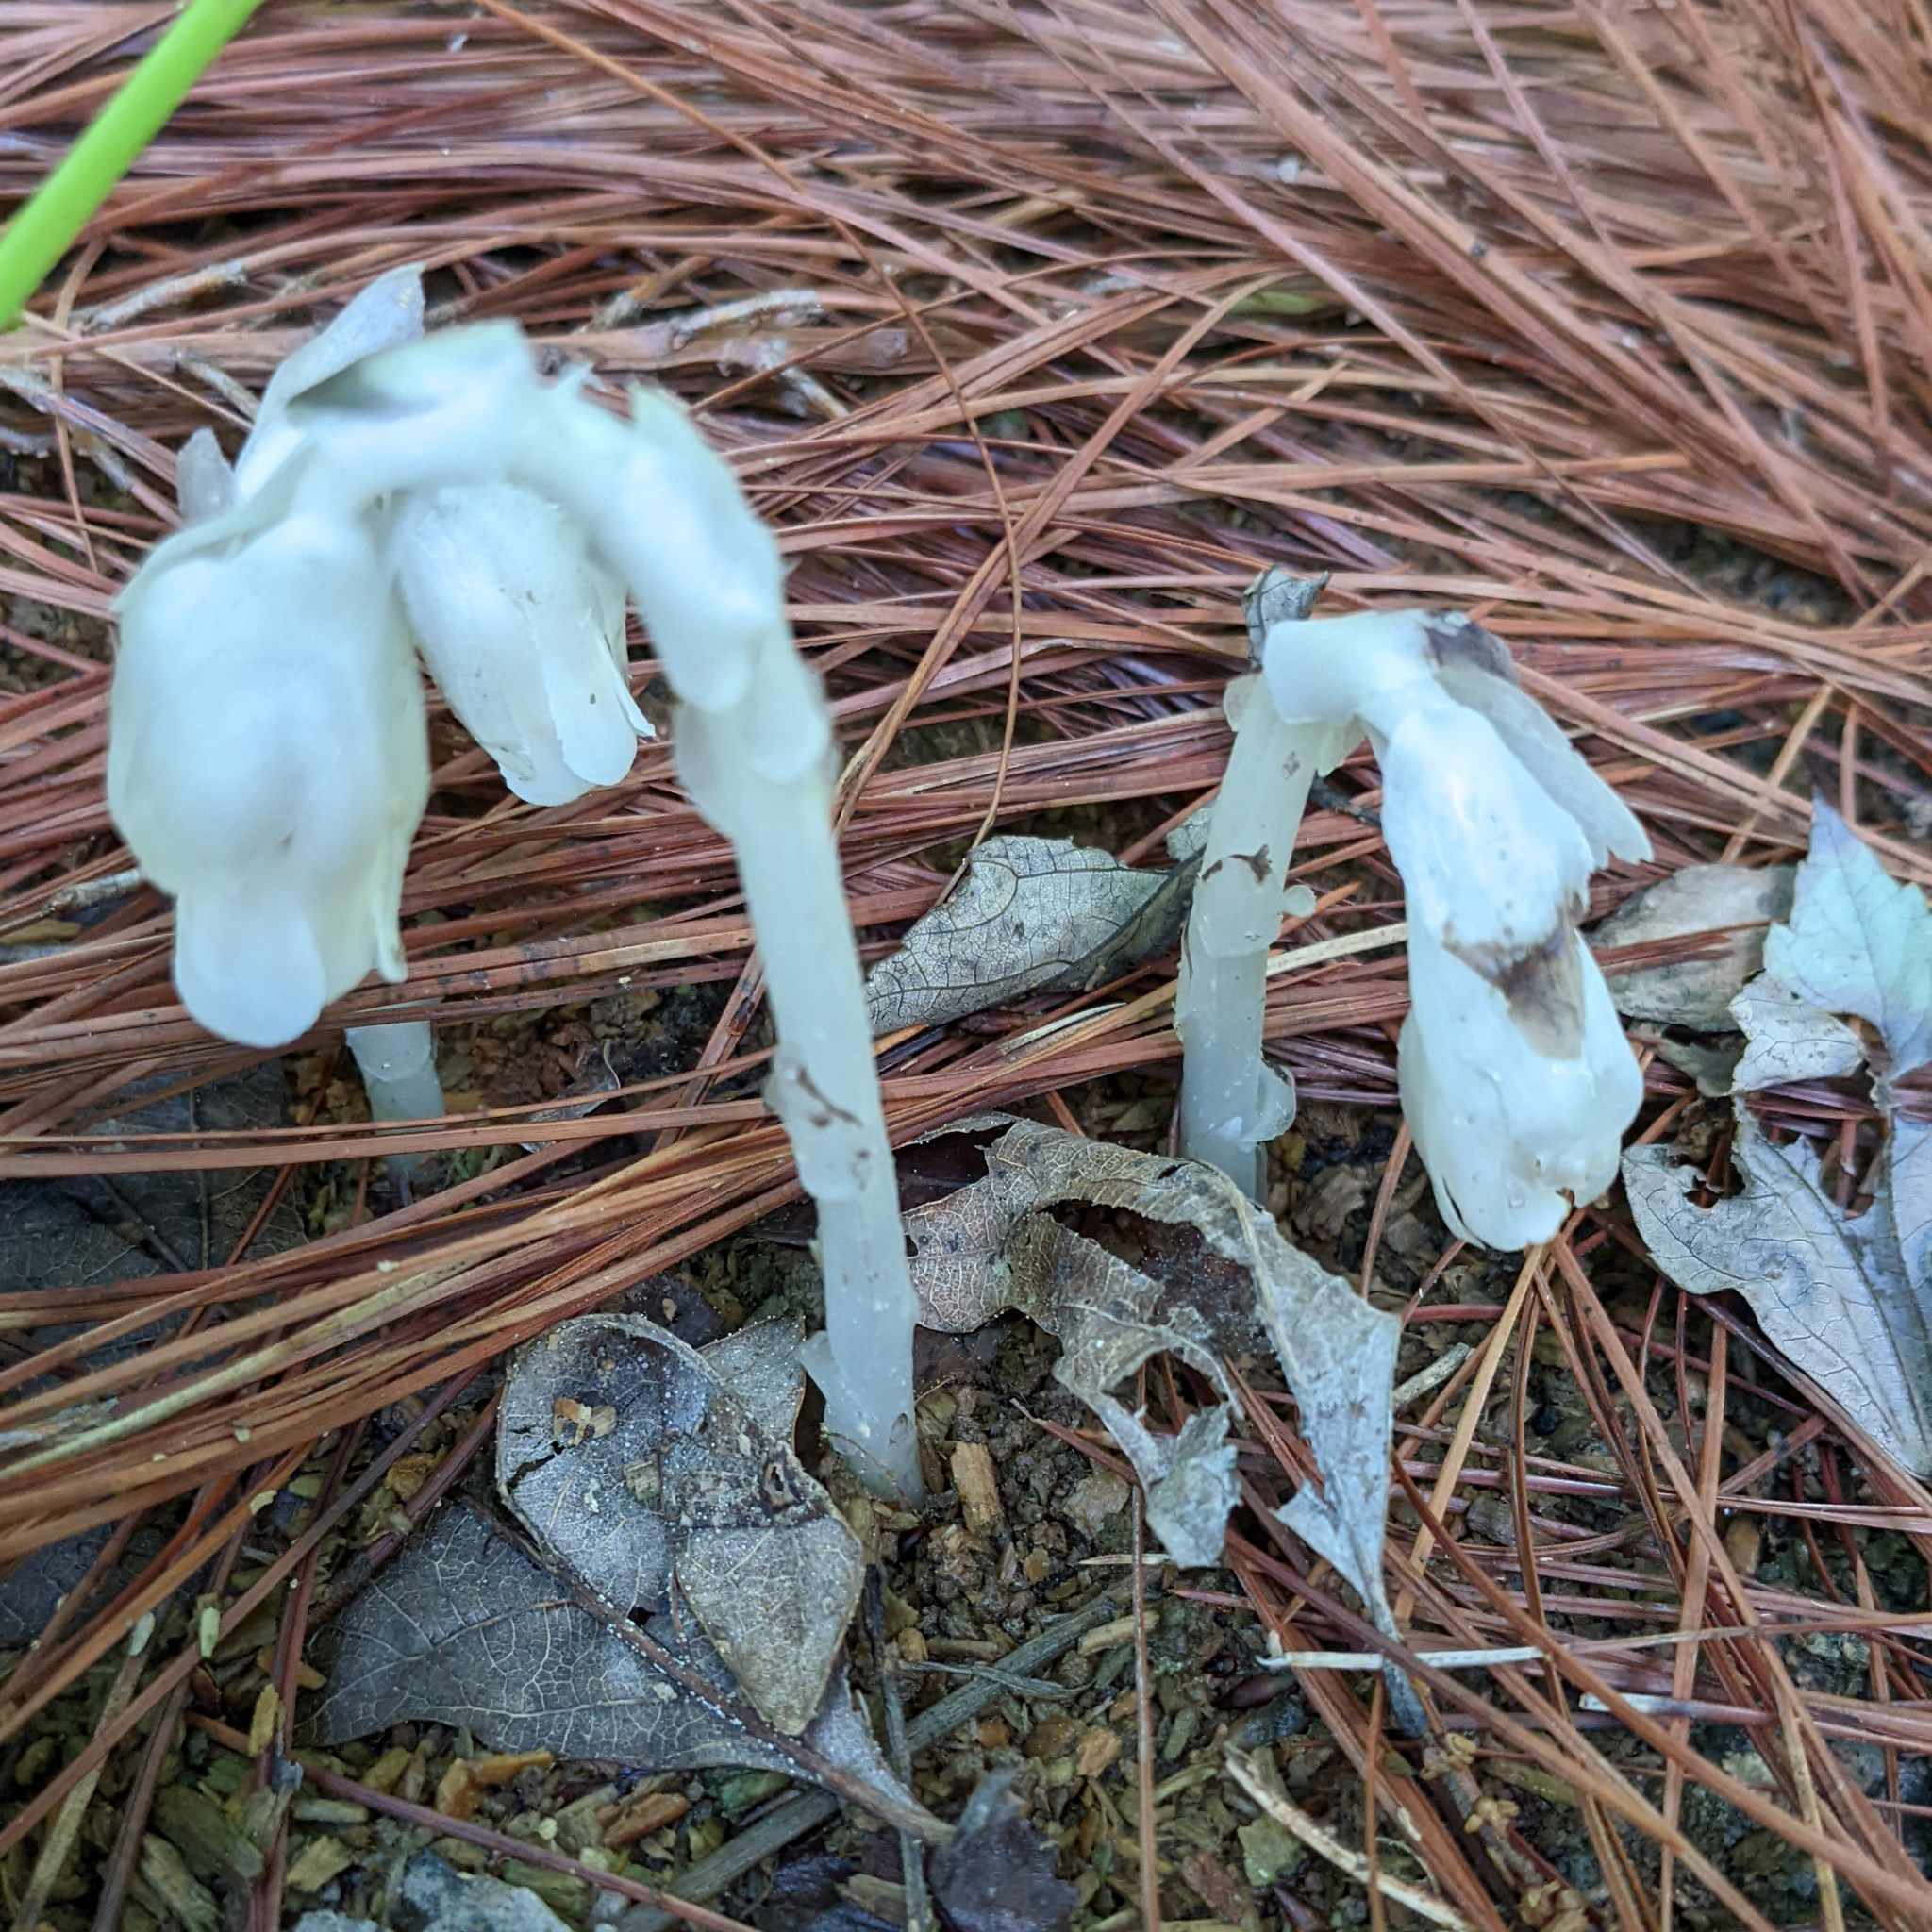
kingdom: Plantae
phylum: Tracheophyta
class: Magnoliopsida
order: Ericales
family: Ericaceae
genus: Monotropa
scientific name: Monotropa uniflora
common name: Convulsion root
